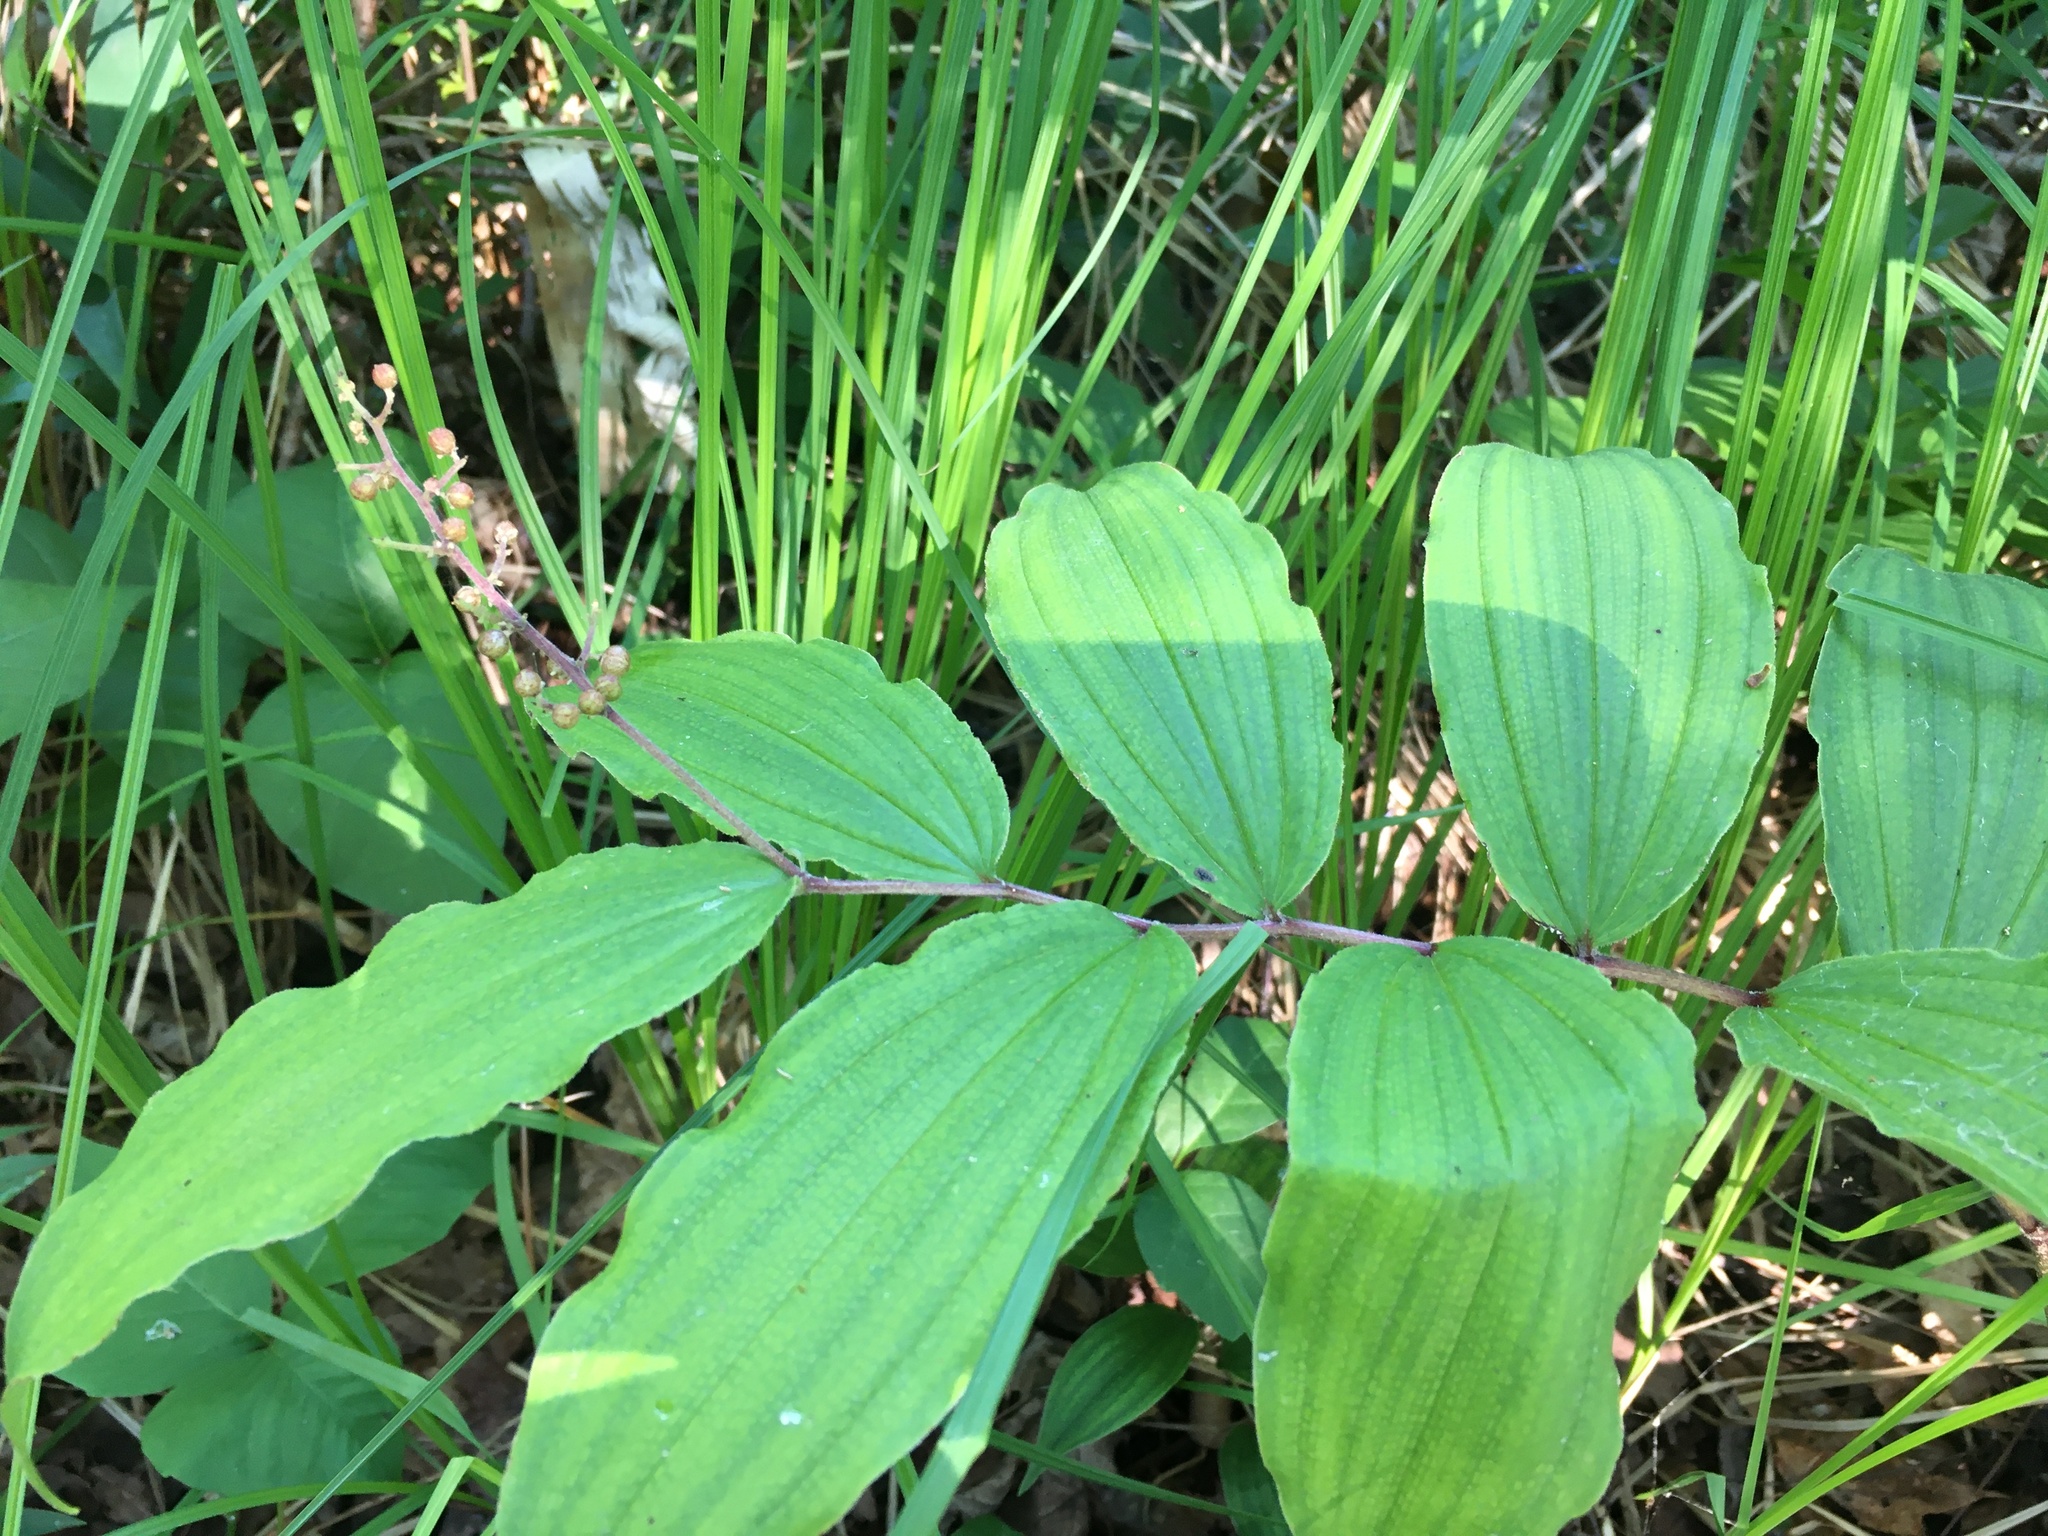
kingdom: Plantae
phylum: Tracheophyta
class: Liliopsida
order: Asparagales
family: Asparagaceae
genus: Maianthemum
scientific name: Maianthemum racemosum
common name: False spikenard
